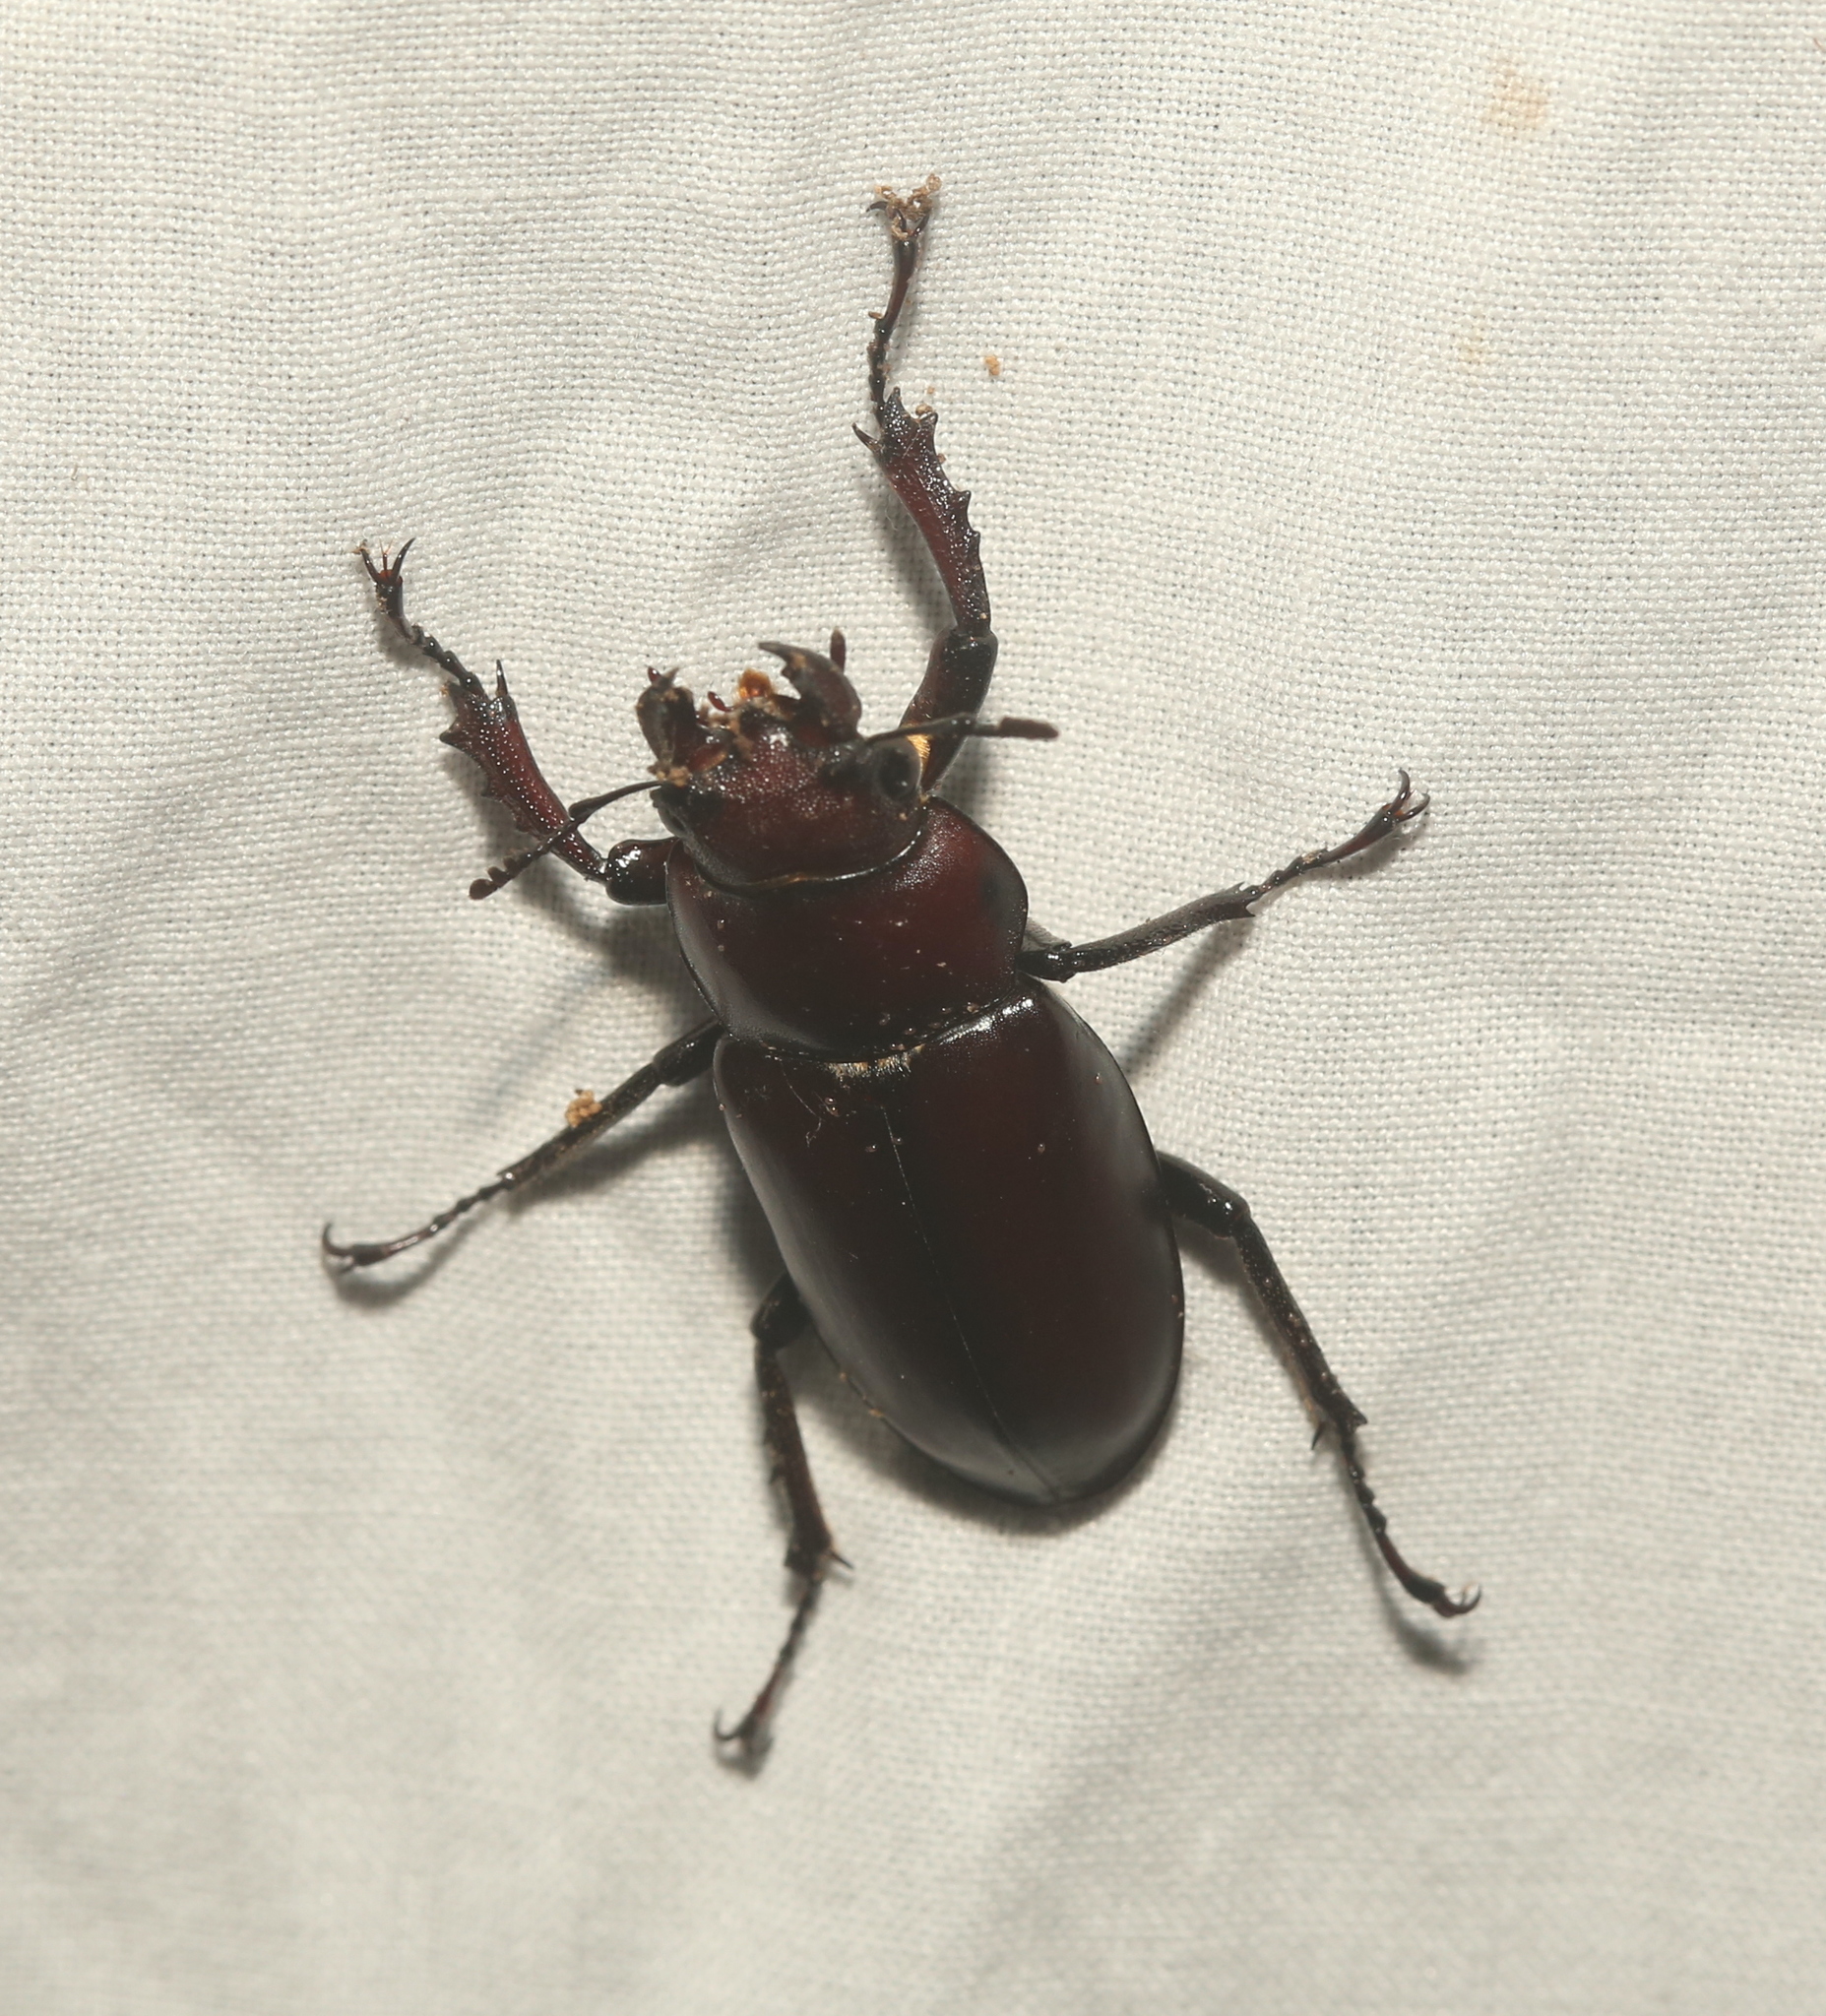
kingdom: Animalia
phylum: Arthropoda
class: Insecta
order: Coleoptera
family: Lucanidae
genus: Lucanus
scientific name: Lucanus elaphus
